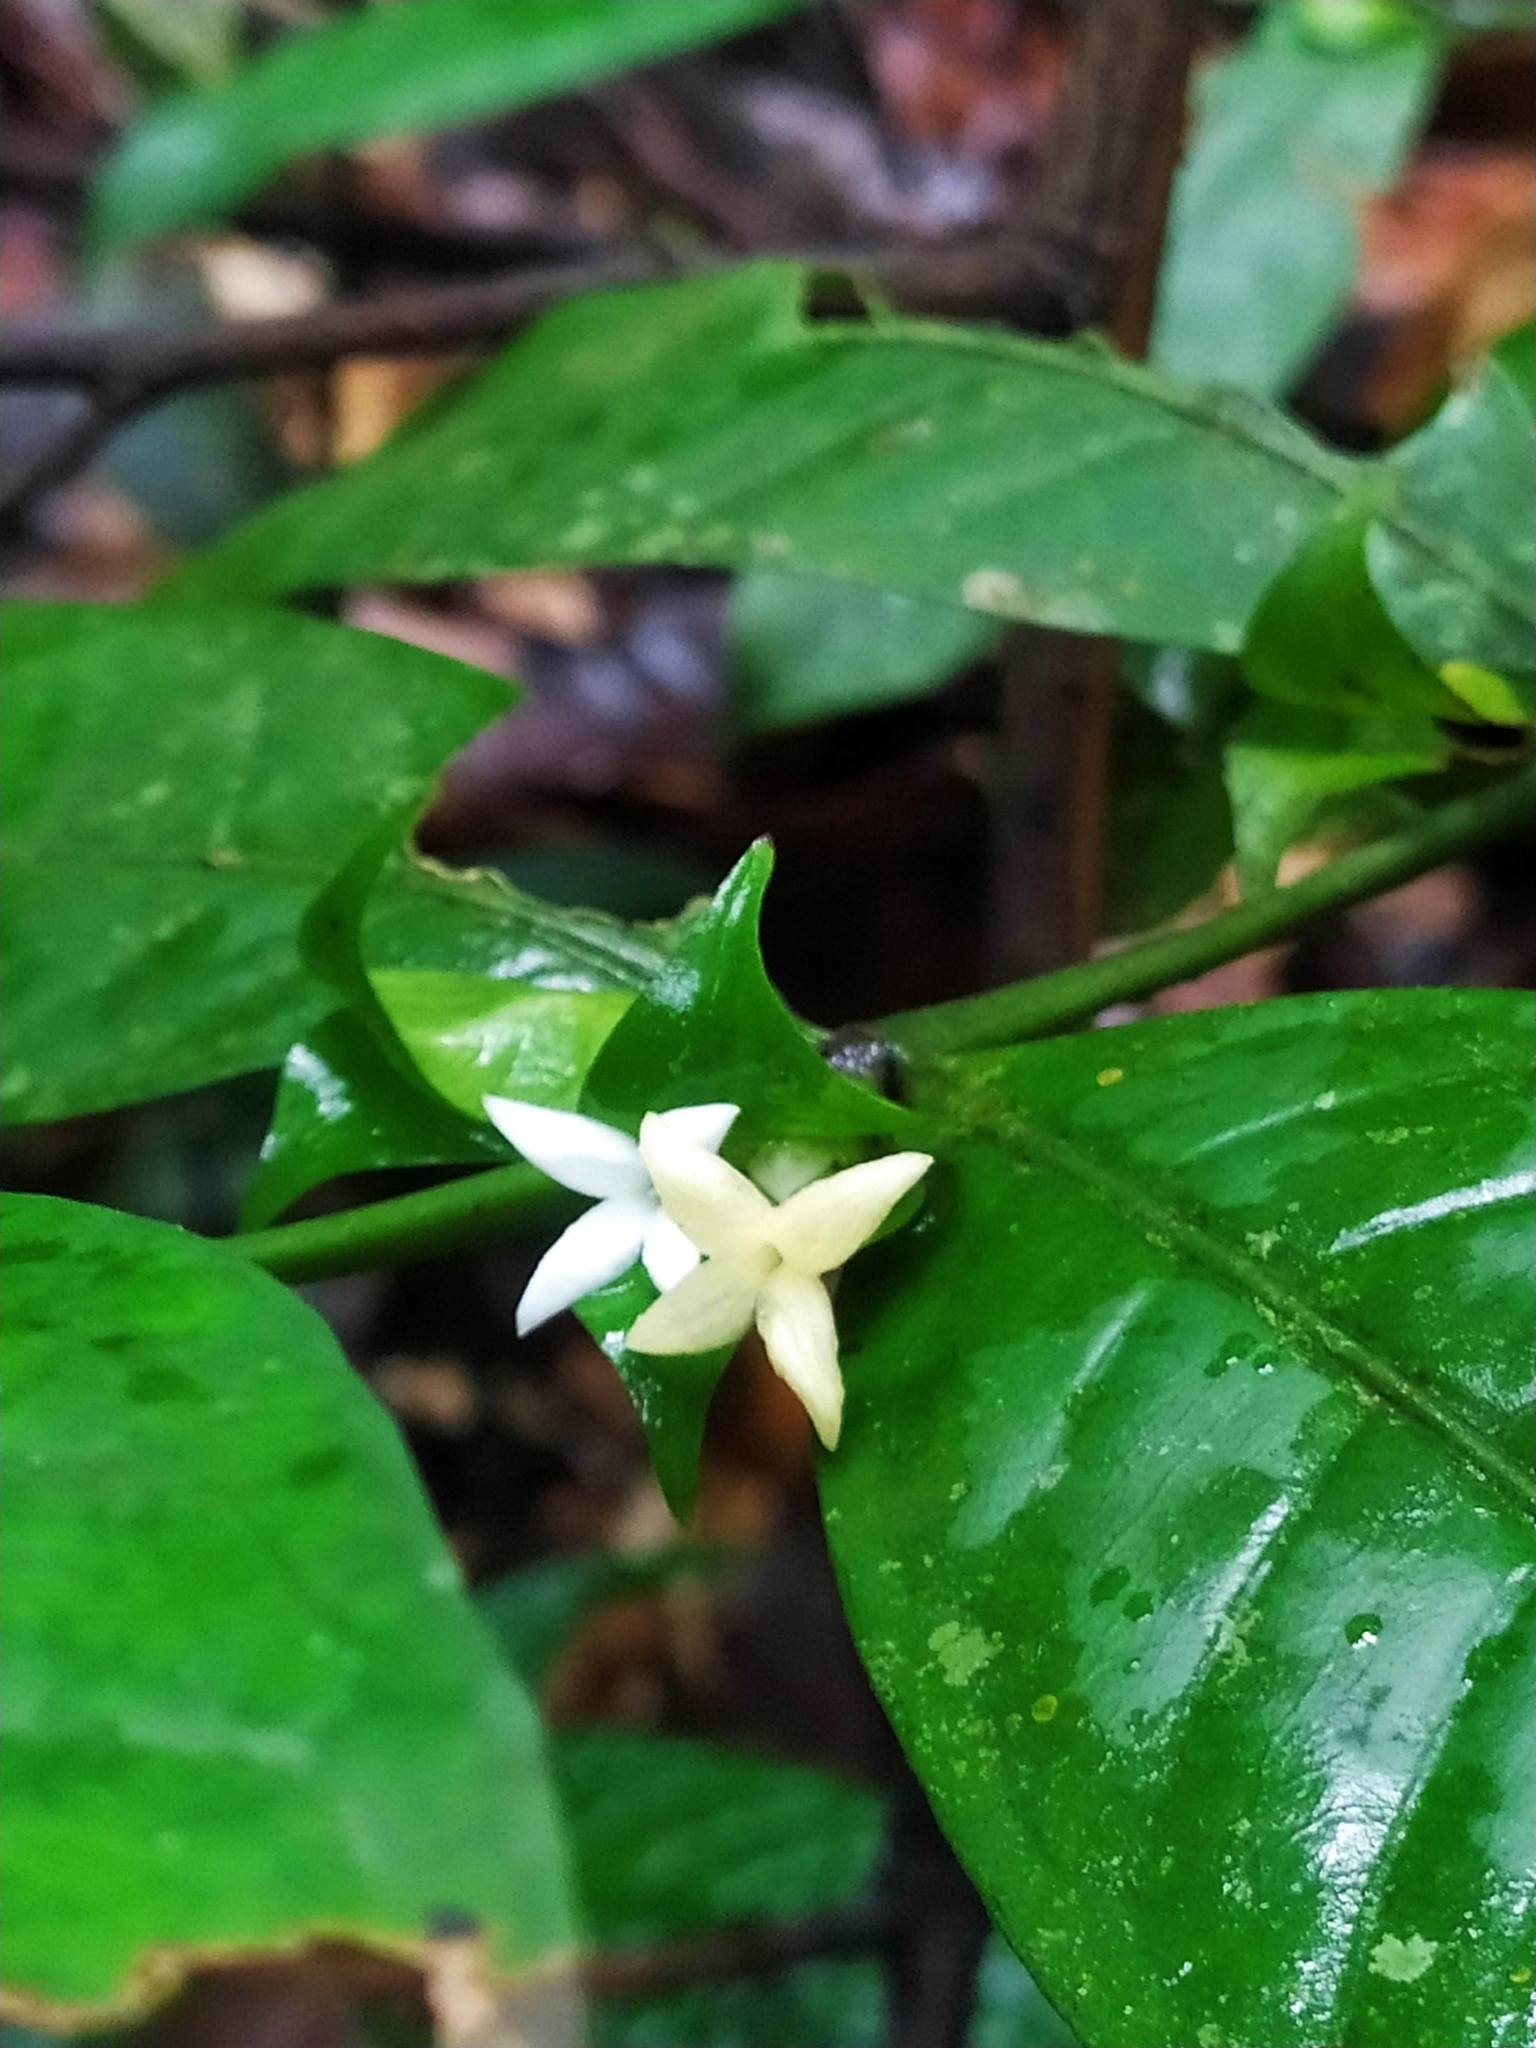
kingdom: Plantae
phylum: Tracheophyta
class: Magnoliopsida
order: Gentianales
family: Rubiaceae
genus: Faramea
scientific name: Faramea guianensis
